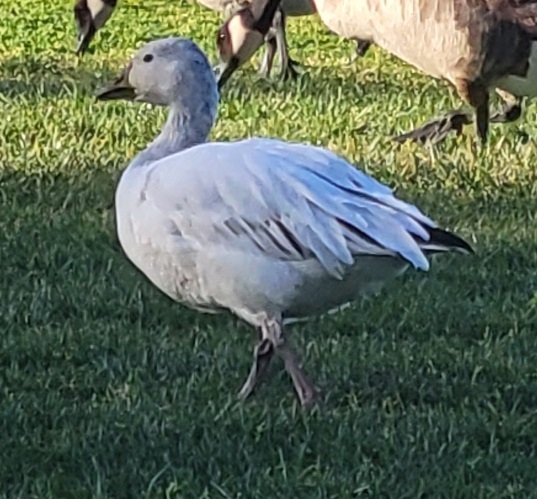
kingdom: Animalia
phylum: Chordata
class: Aves
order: Anseriformes
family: Anatidae
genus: Anser
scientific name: Anser caerulescens
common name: Snow goose
